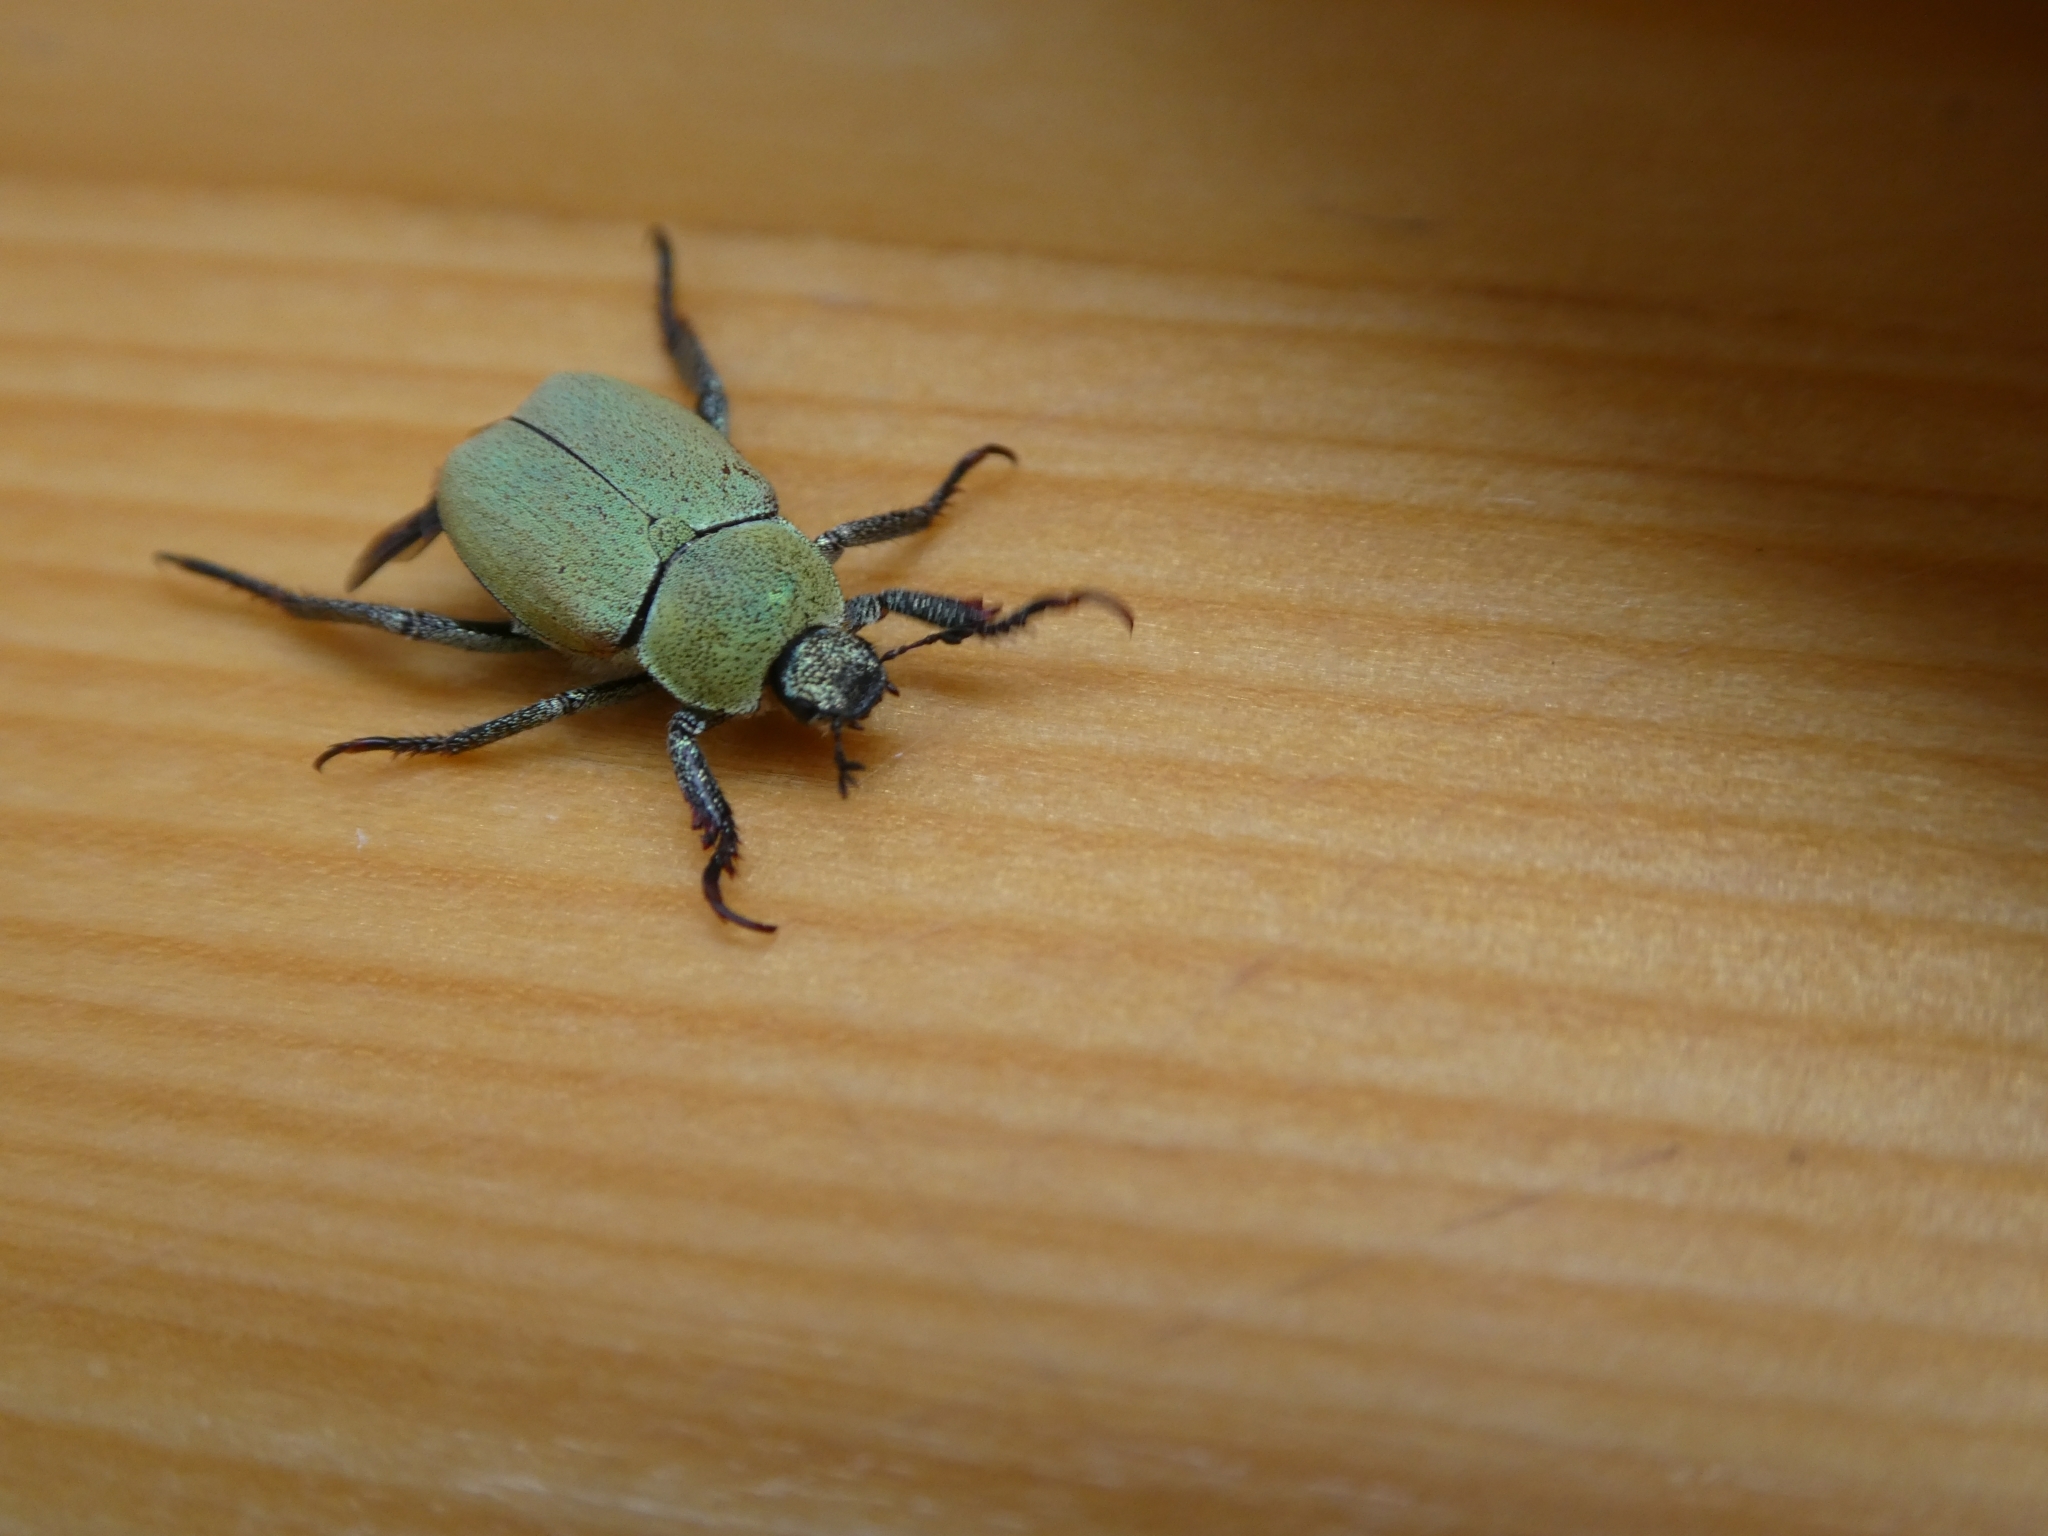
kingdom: Animalia
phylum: Arthropoda
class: Insecta
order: Coleoptera
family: Scarabaeidae
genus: Hoplia
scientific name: Hoplia argentea
